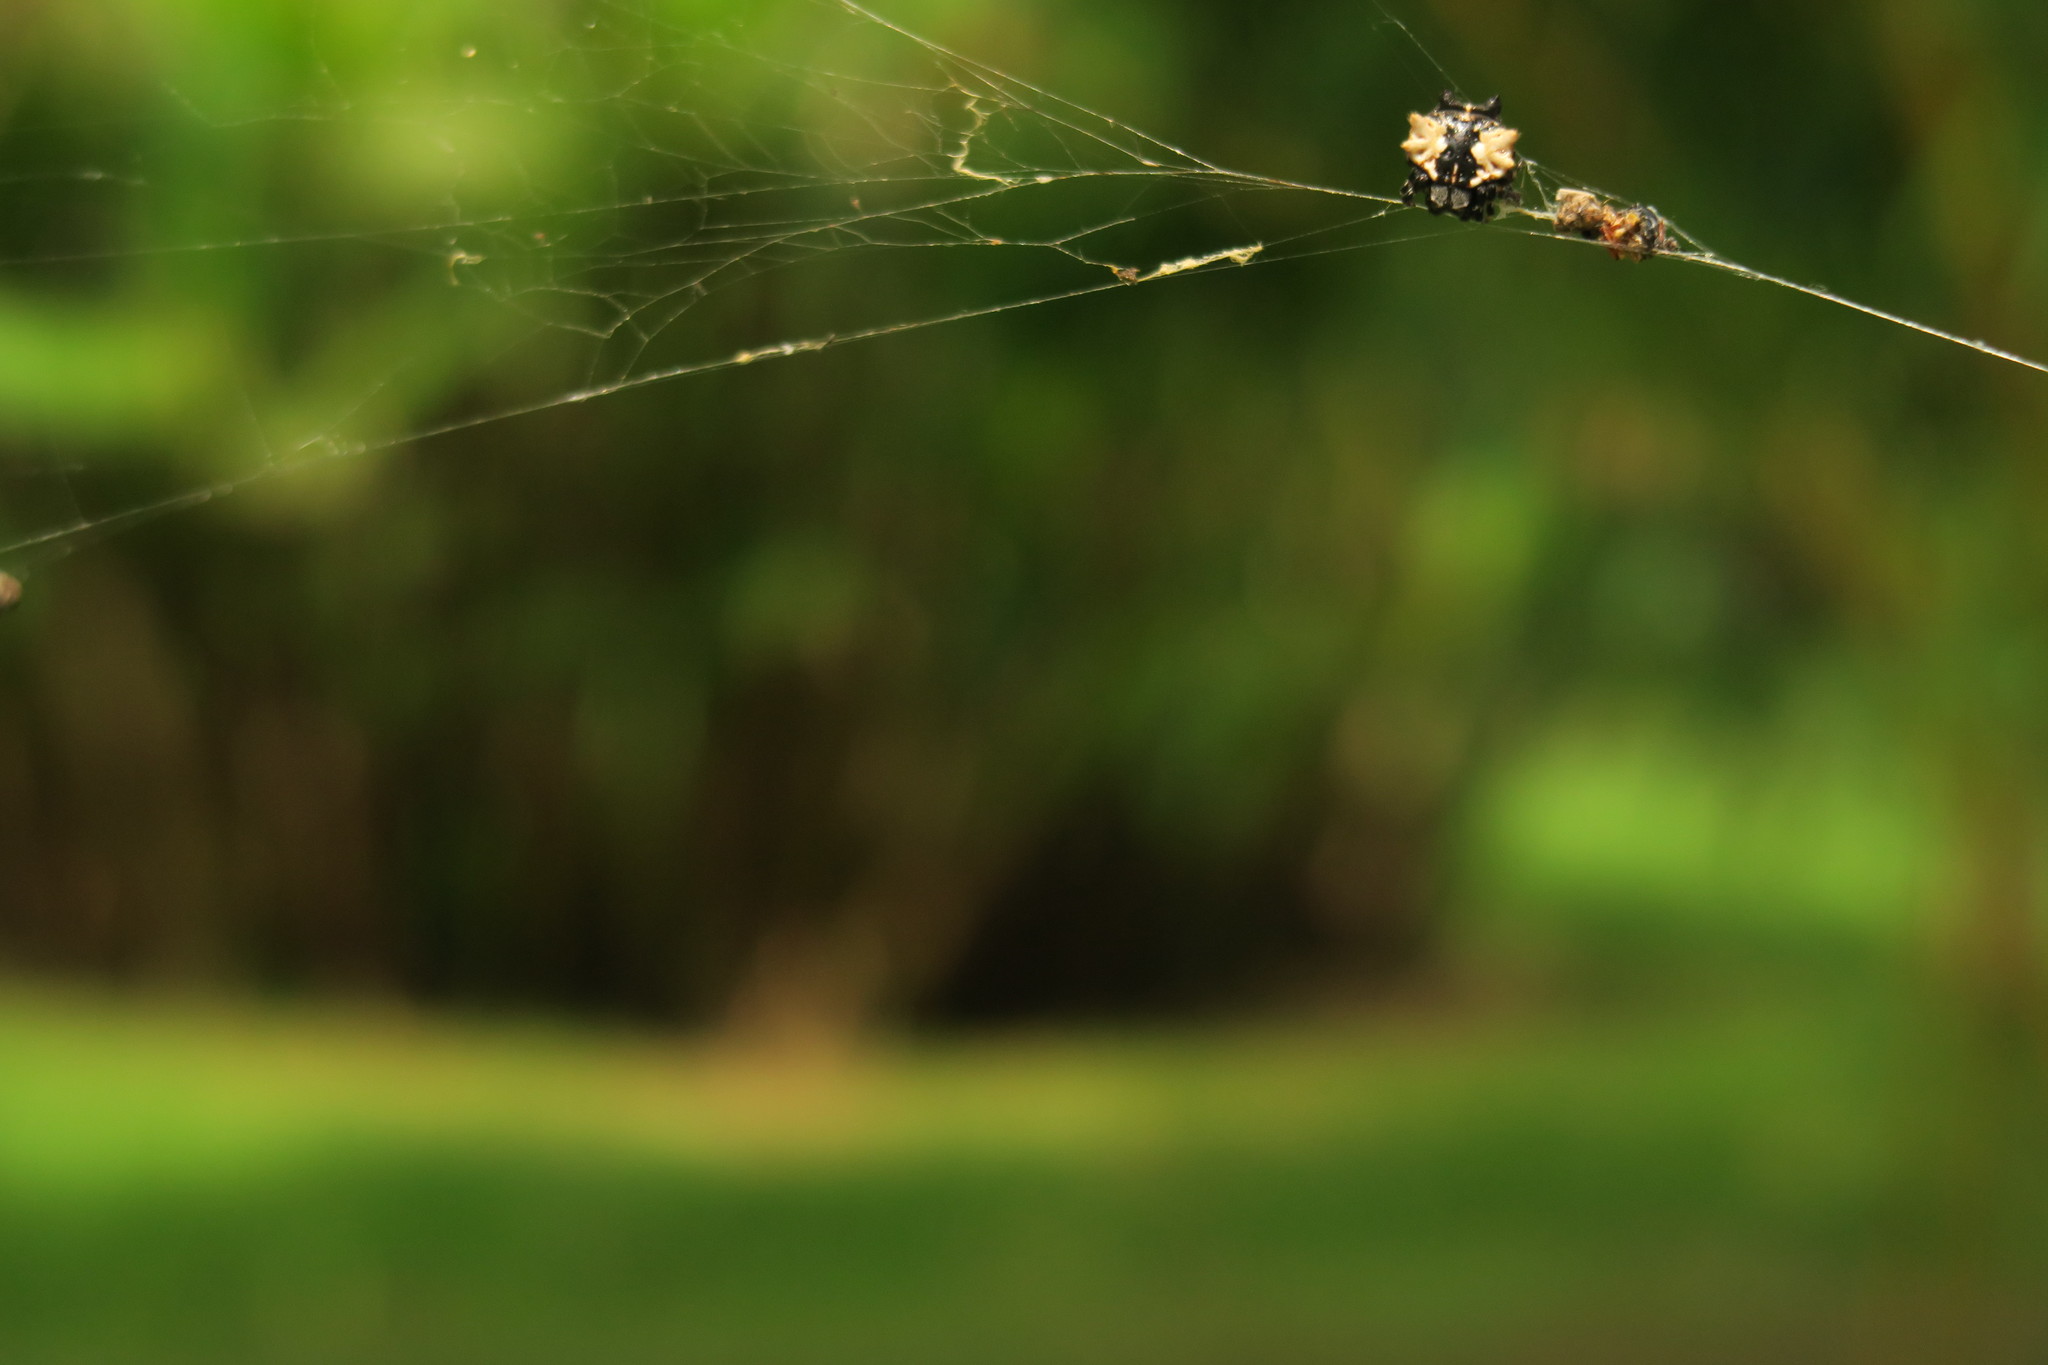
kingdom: Animalia
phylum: Arthropoda
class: Arachnida
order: Araneae
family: Araneidae
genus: Gasteracantha
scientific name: Gasteracantha mediofusca
